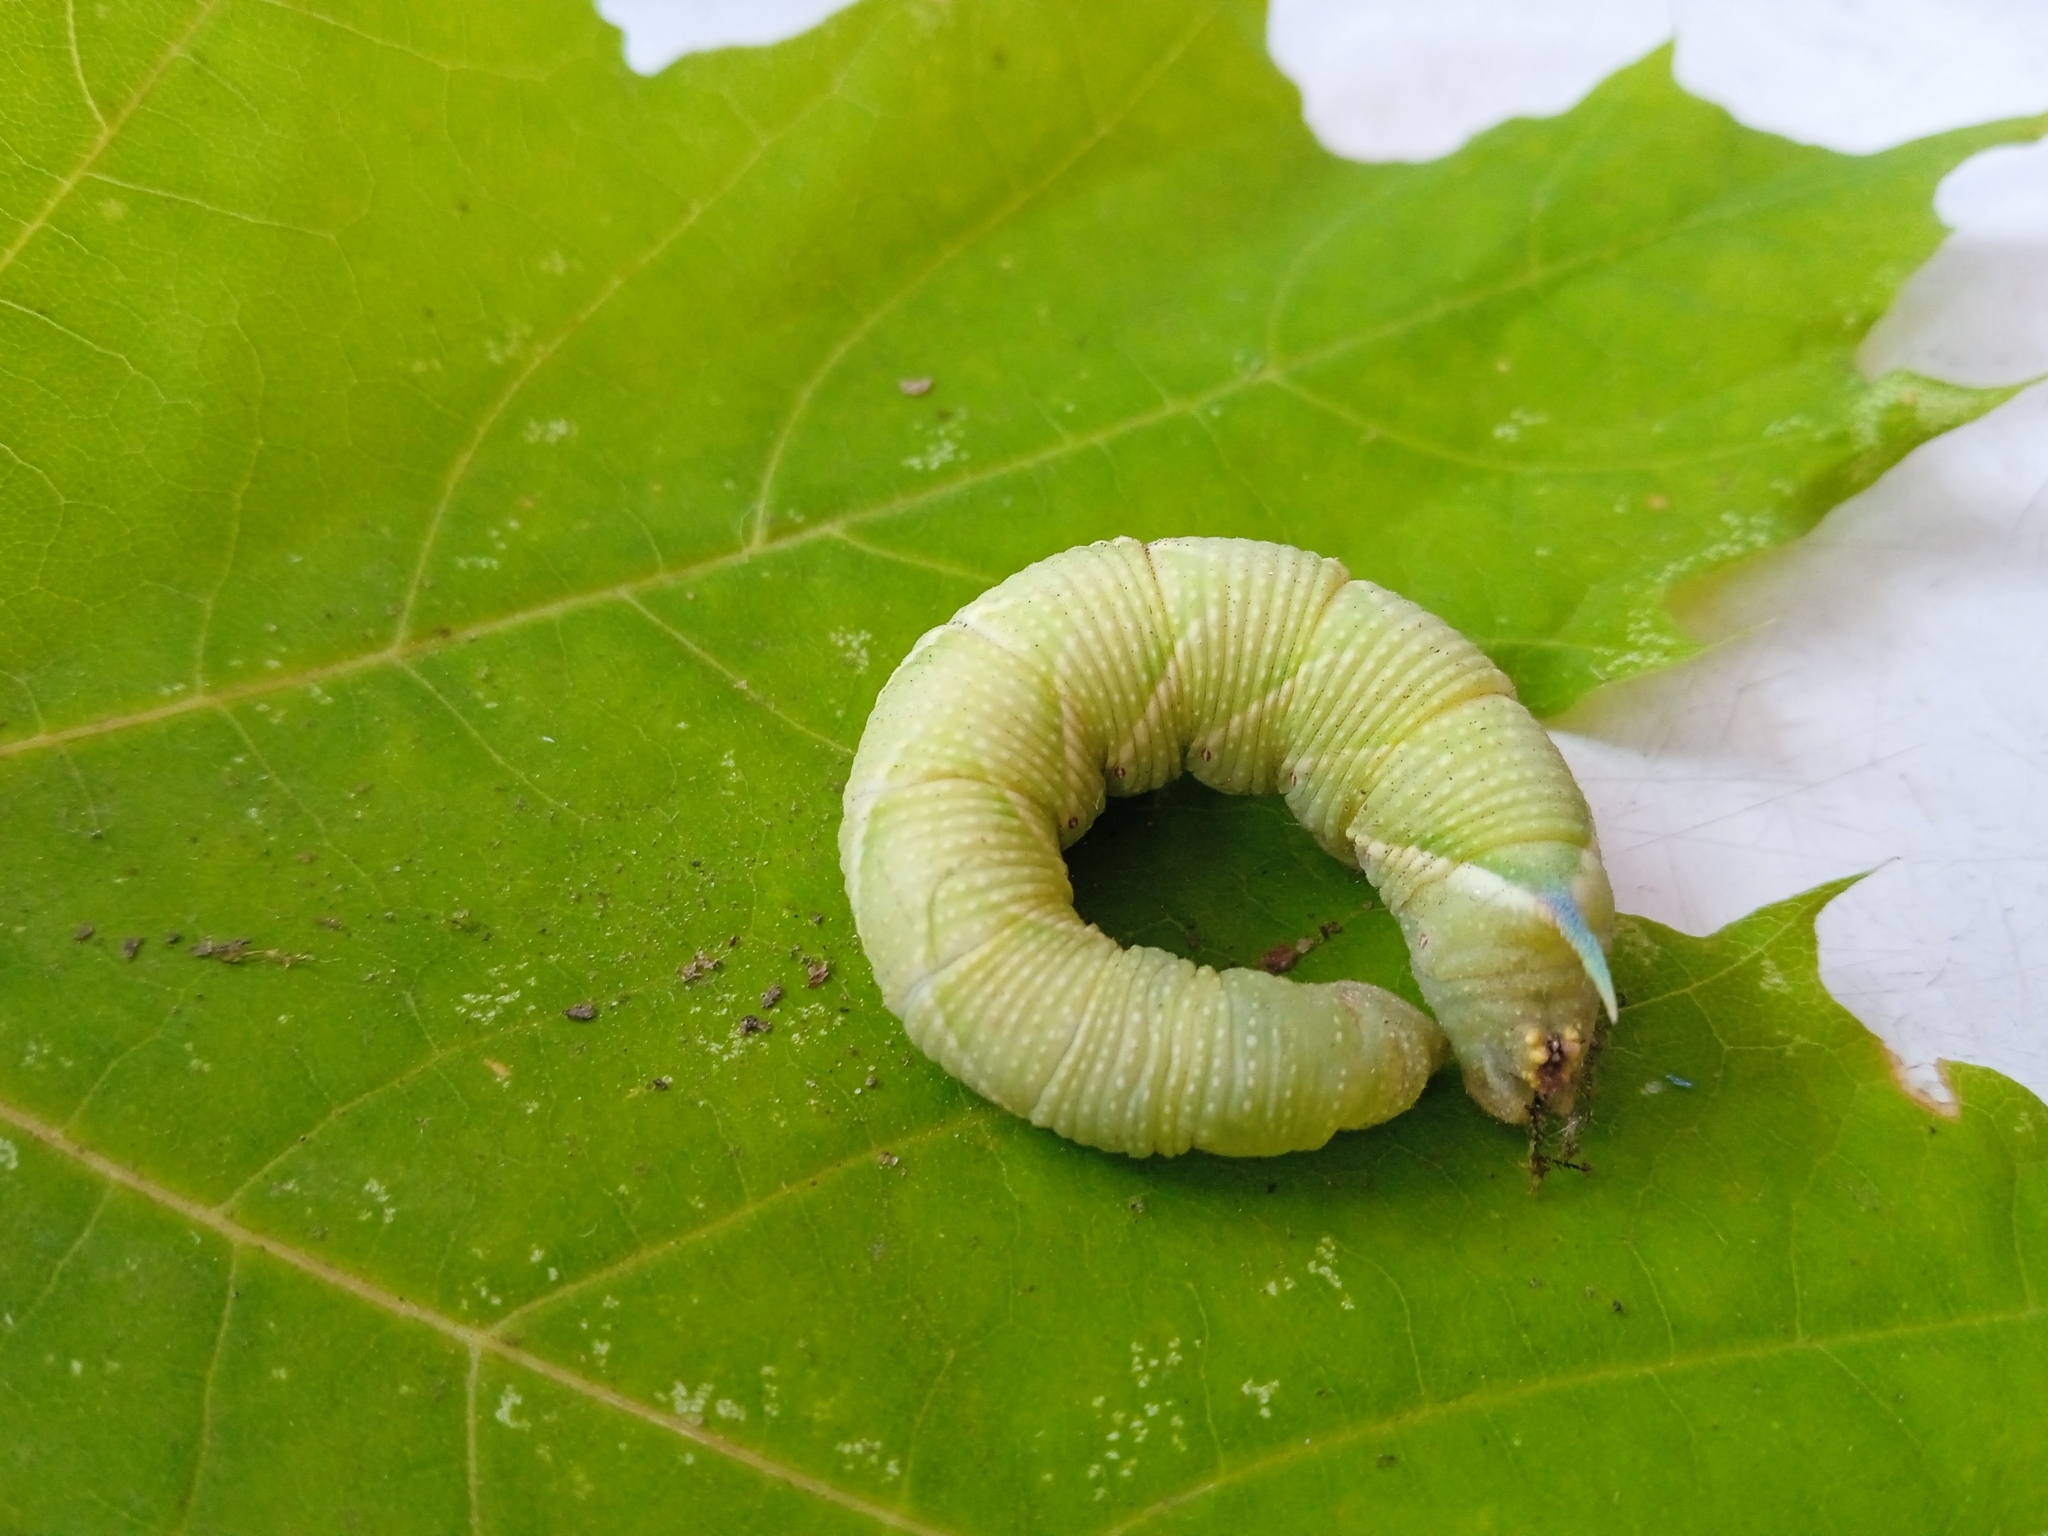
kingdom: Animalia
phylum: Arthropoda
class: Insecta
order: Lepidoptera
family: Sphingidae
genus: Mimas
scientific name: Mimas tiliae
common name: Lime hawk-moth
